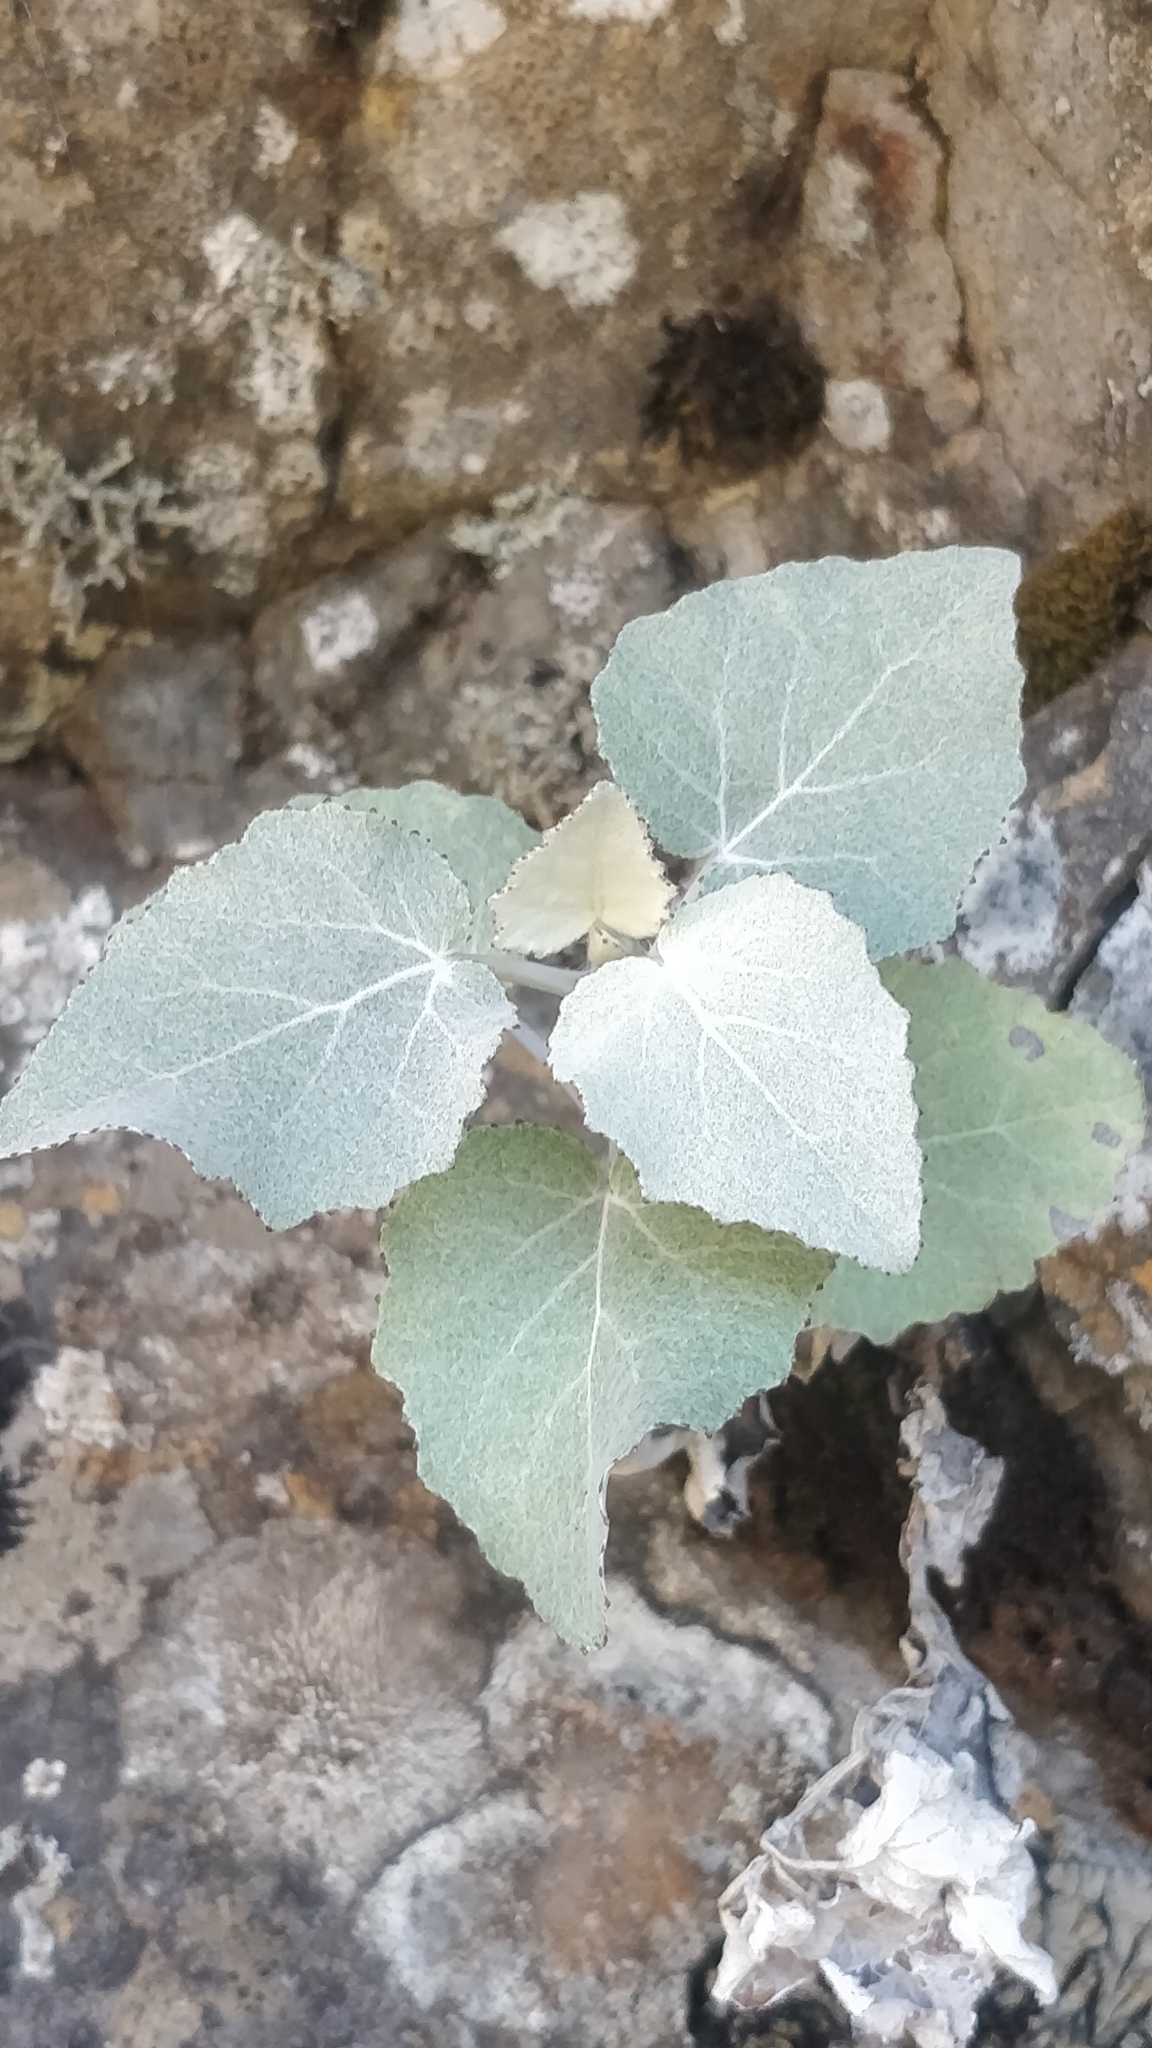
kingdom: Plantae
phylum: Tracheophyta
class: Magnoliopsida
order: Asterales
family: Asteraceae
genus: Pericallis
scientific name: Pericallis aurita
